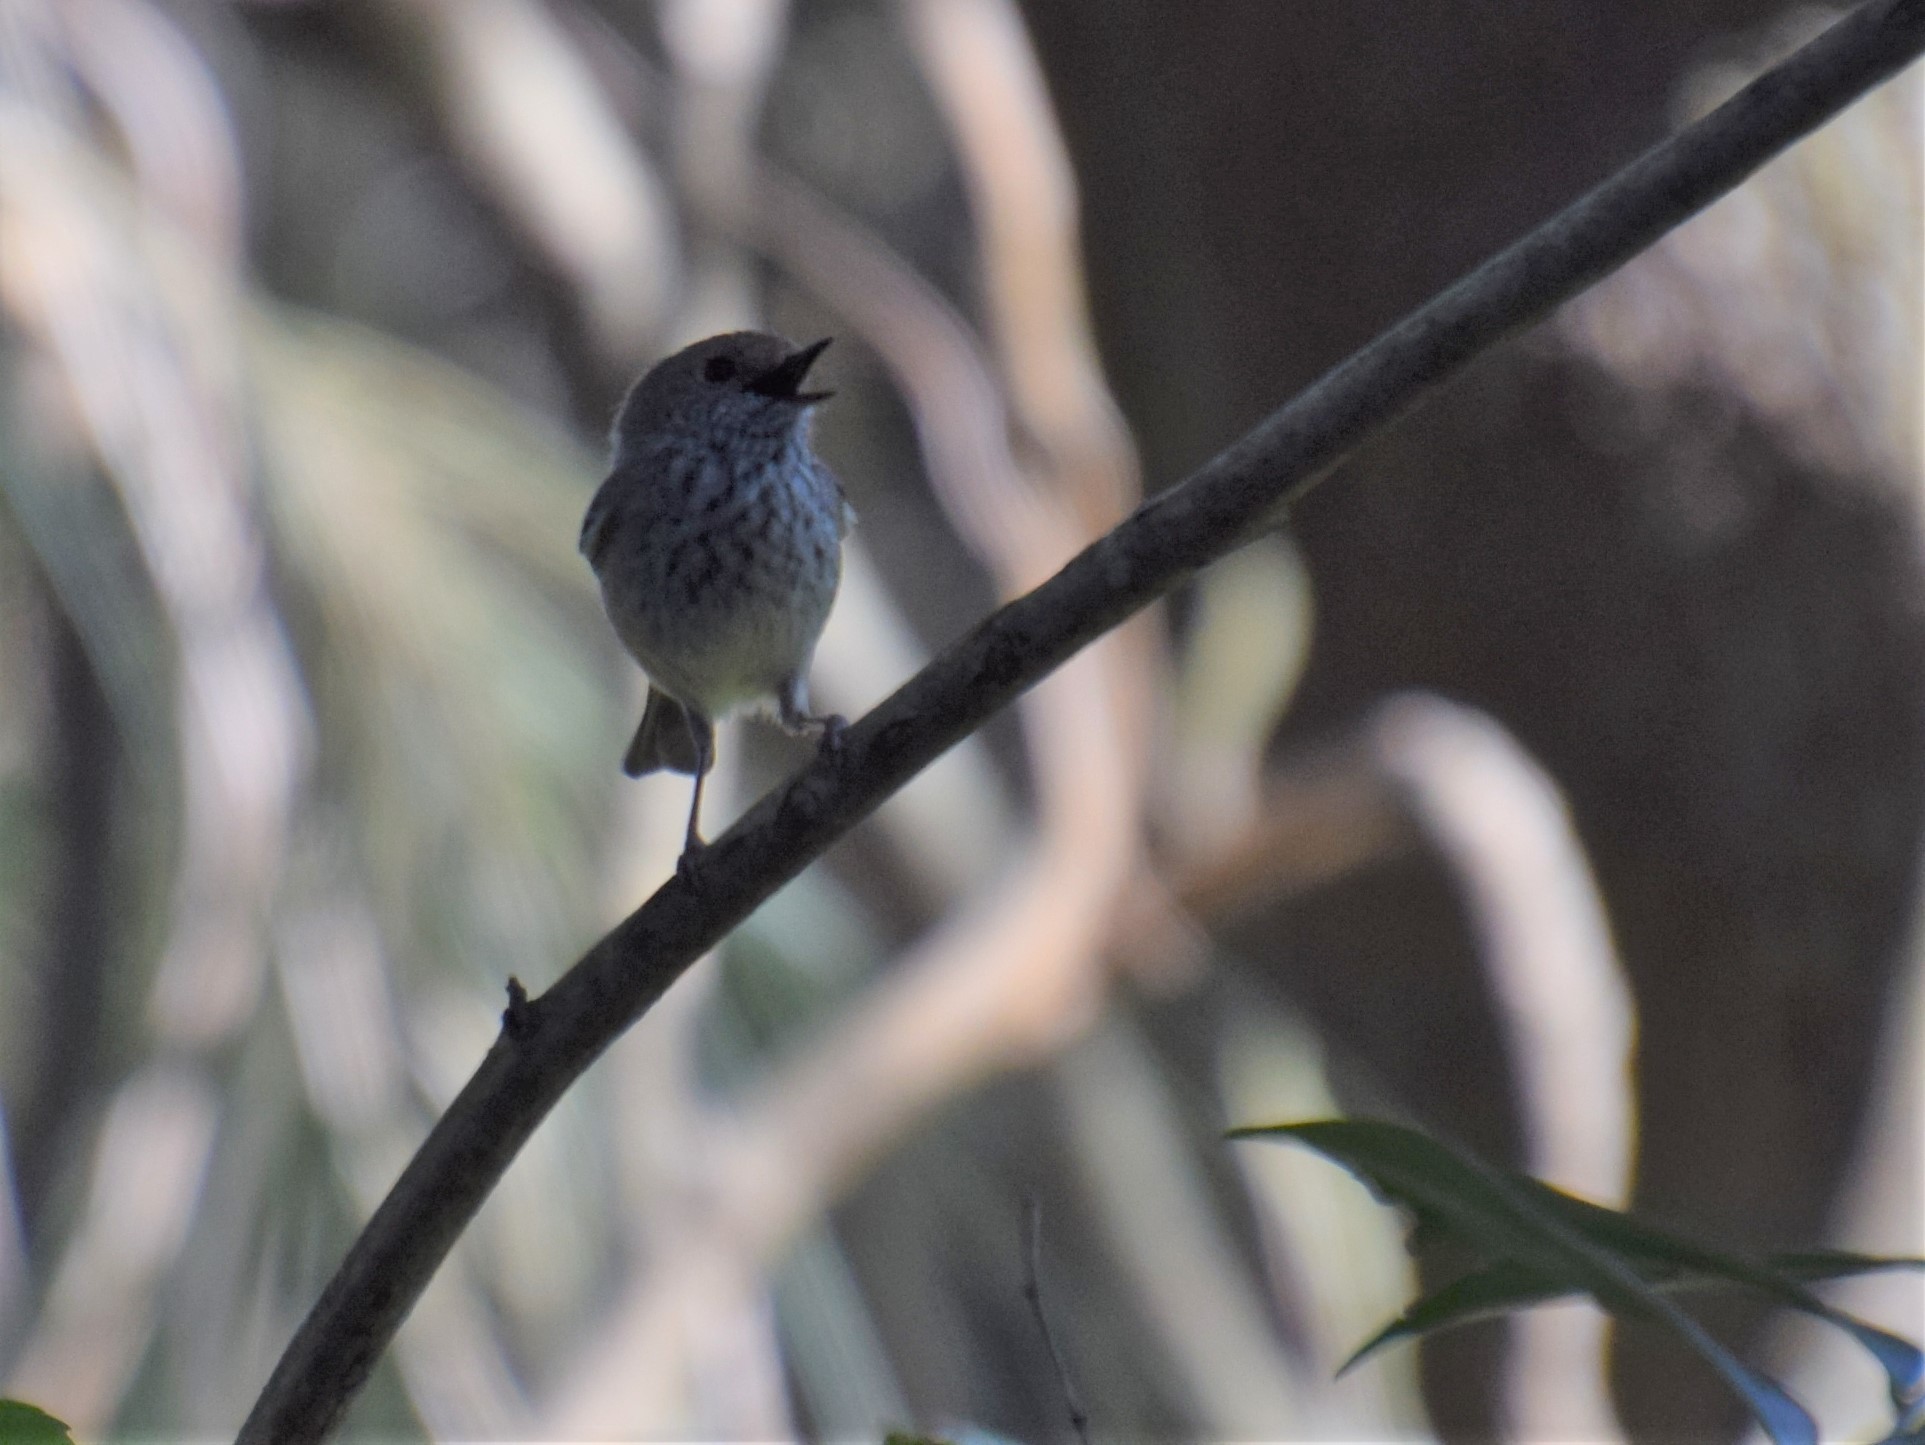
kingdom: Animalia
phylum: Chordata
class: Aves
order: Passeriformes
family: Acanthizidae
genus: Acanthiza
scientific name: Acanthiza pusilla
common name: Brown thornbill
